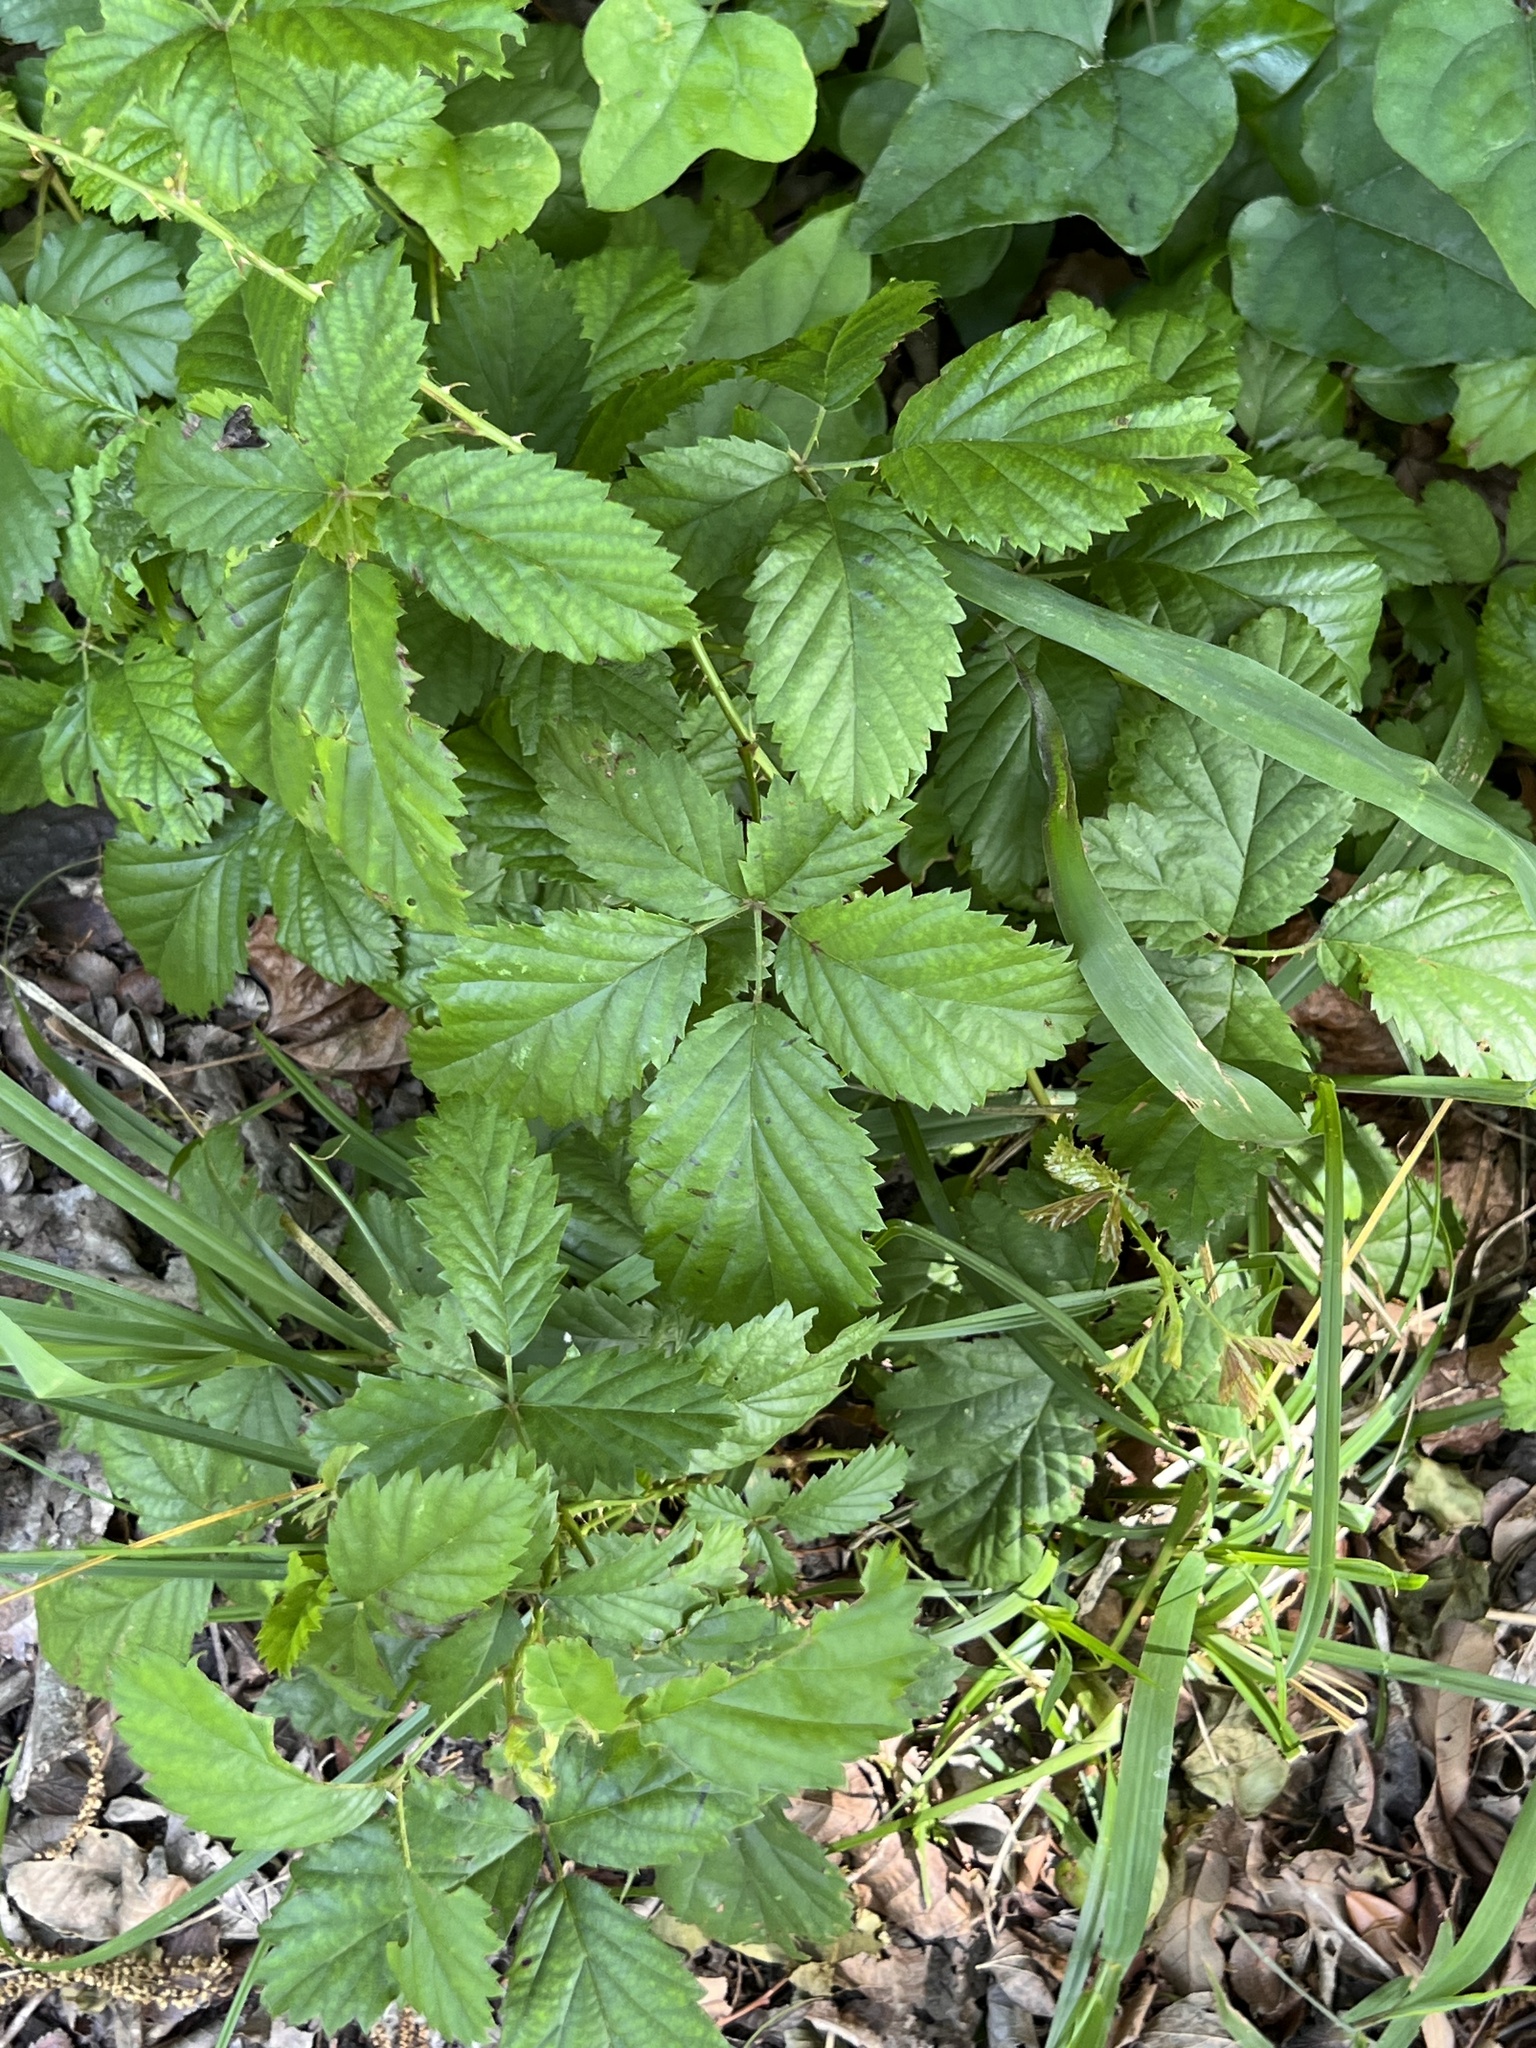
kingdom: Plantae
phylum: Tracheophyta
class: Magnoliopsida
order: Rosales
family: Rosaceae
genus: Rubus
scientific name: Rubus trivialis
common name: Southern dewberry
